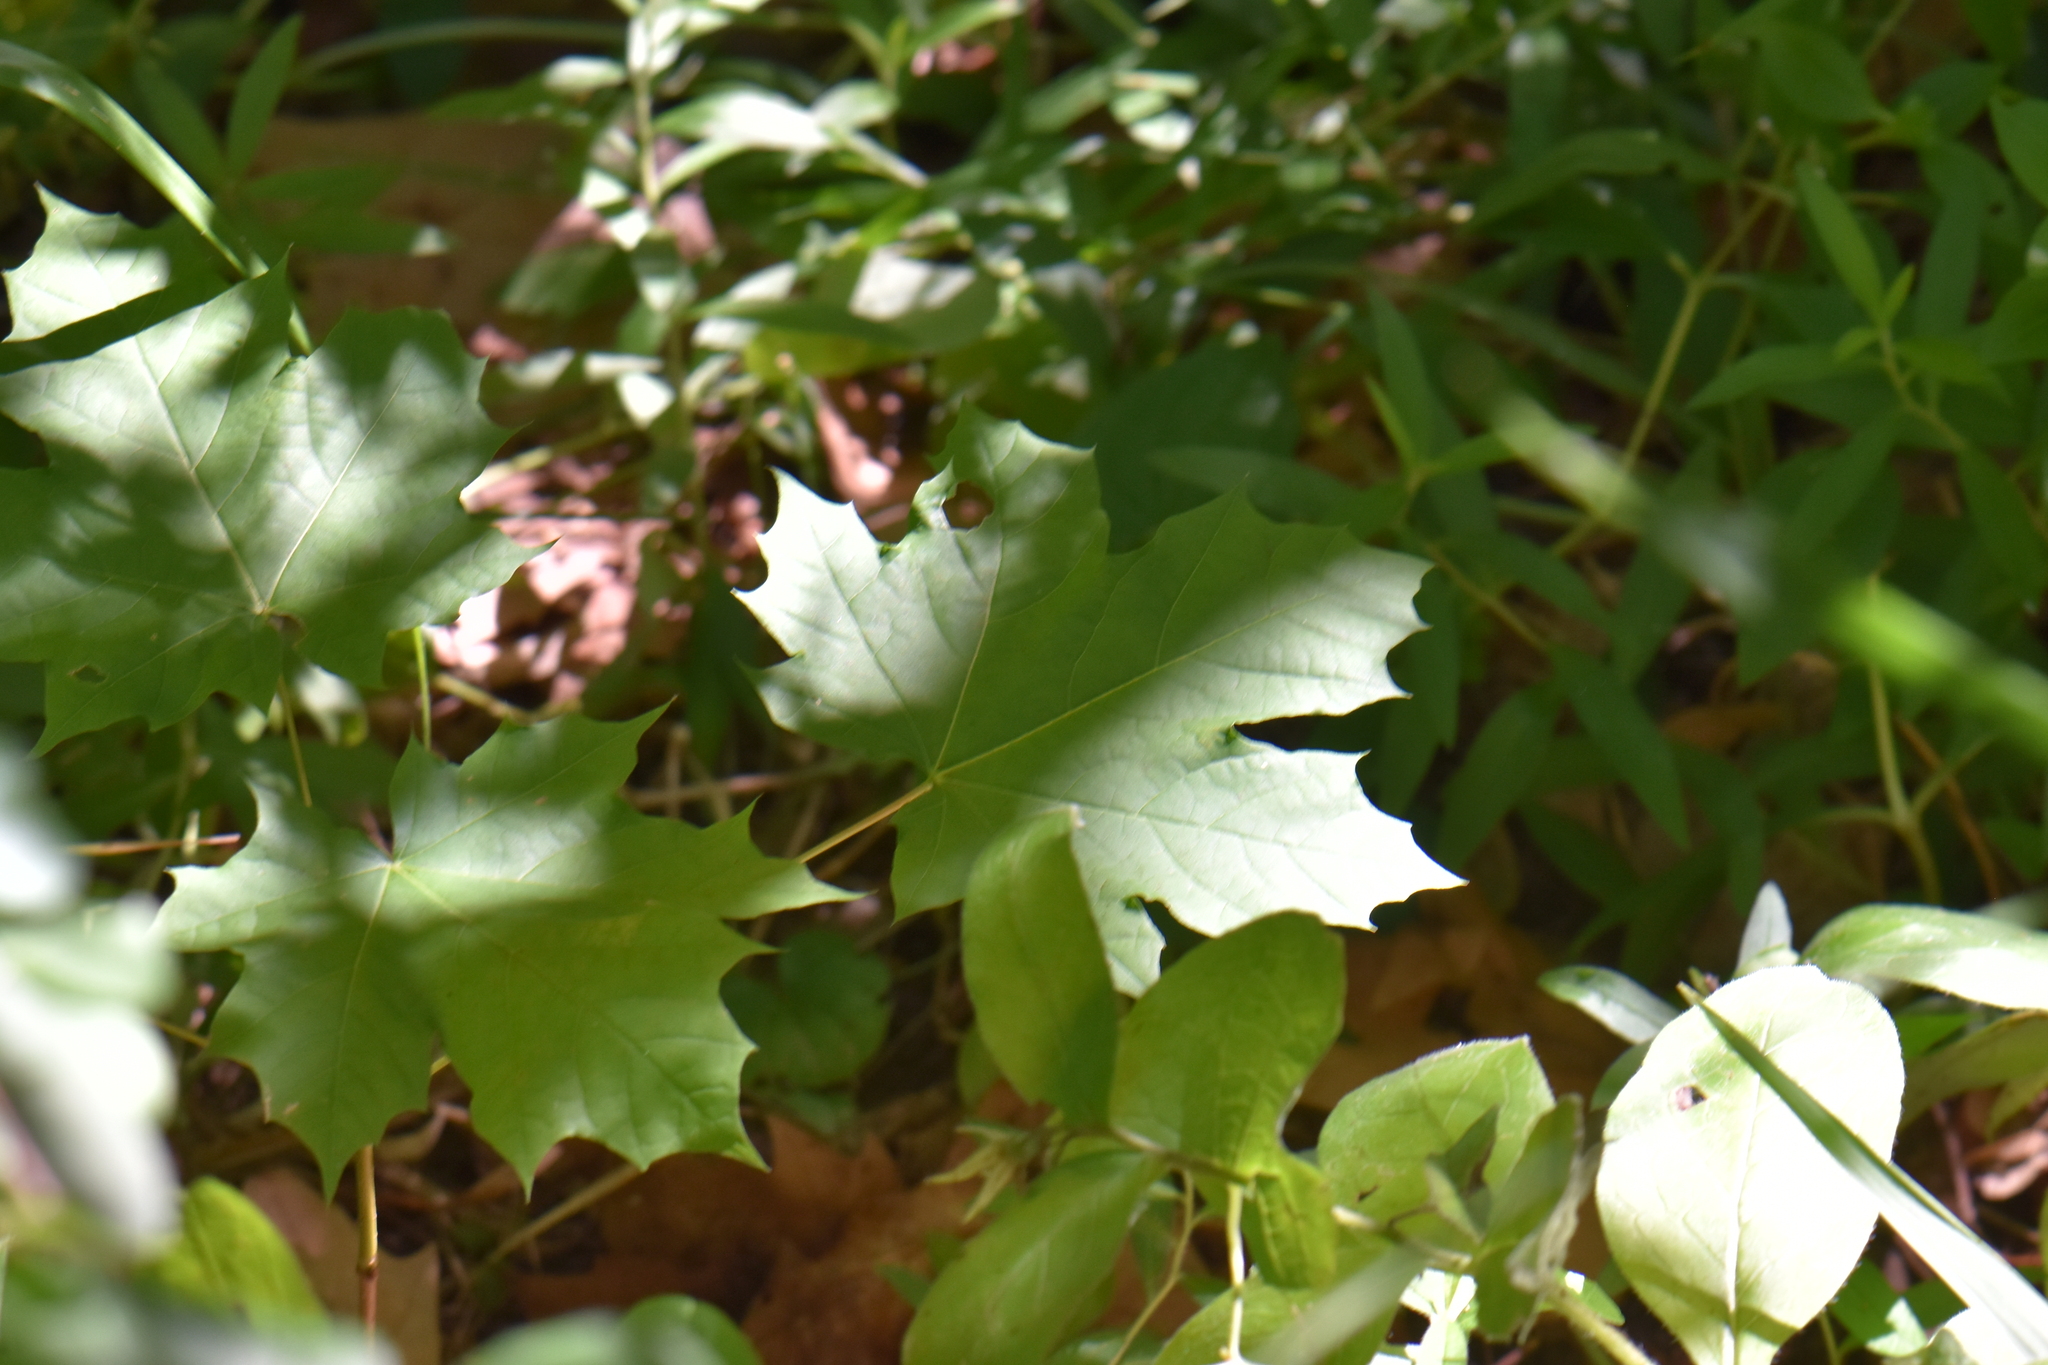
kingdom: Plantae
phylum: Tracheophyta
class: Magnoliopsida
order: Sapindales
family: Sapindaceae
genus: Acer
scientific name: Acer platanoides
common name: Norway maple
